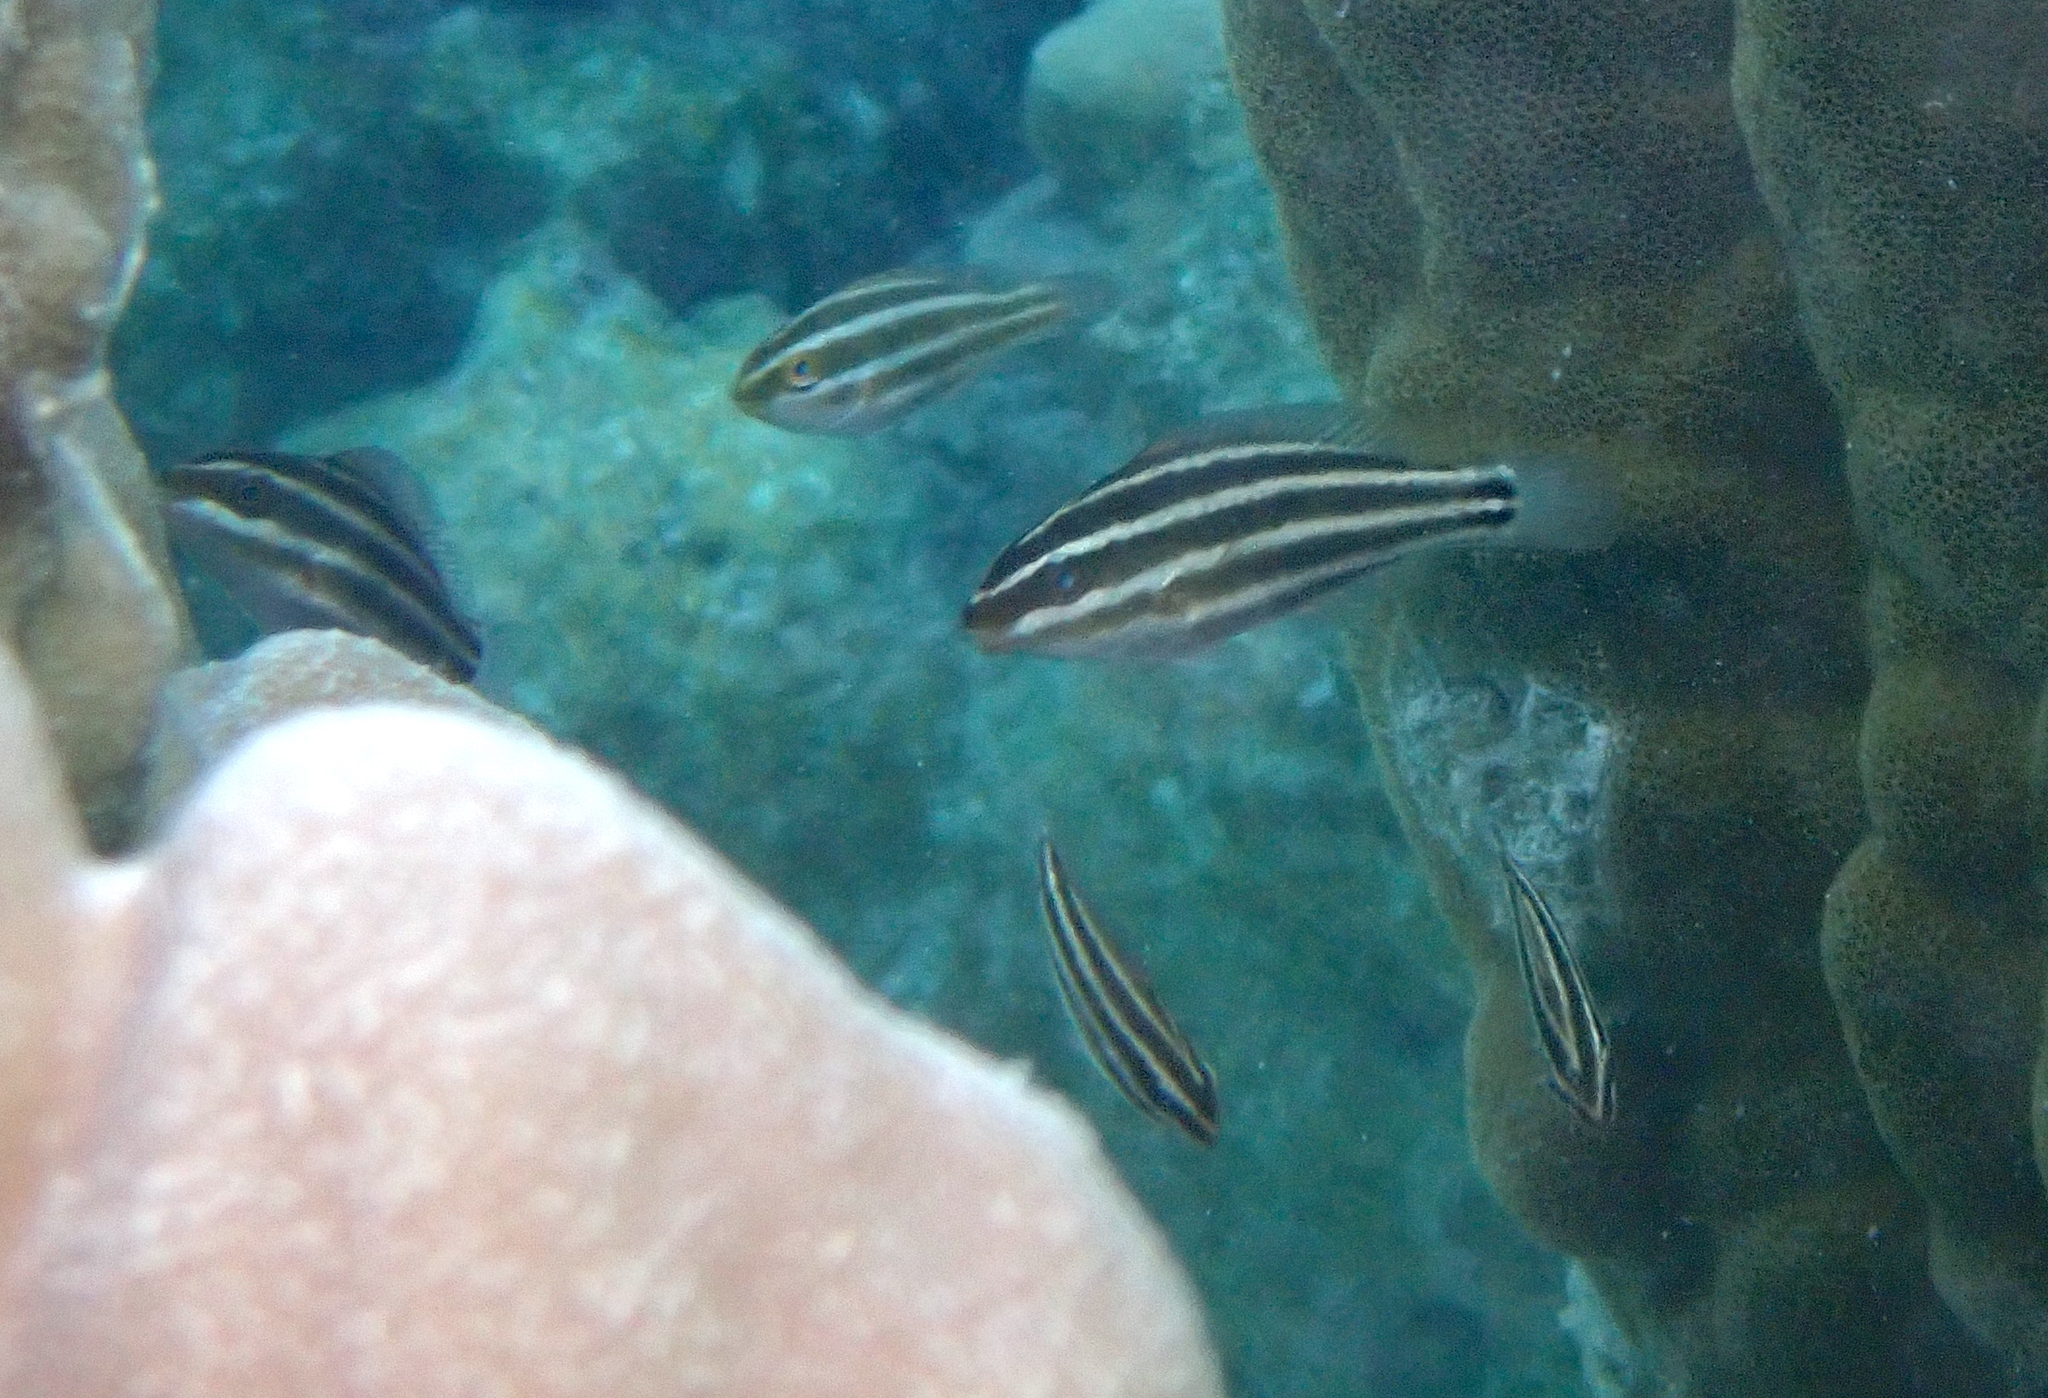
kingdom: Animalia
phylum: Chordata
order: Perciformes
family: Scaridae
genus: Chlorurus
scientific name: Chlorurus spilurus
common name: Bullethead parrotfish
